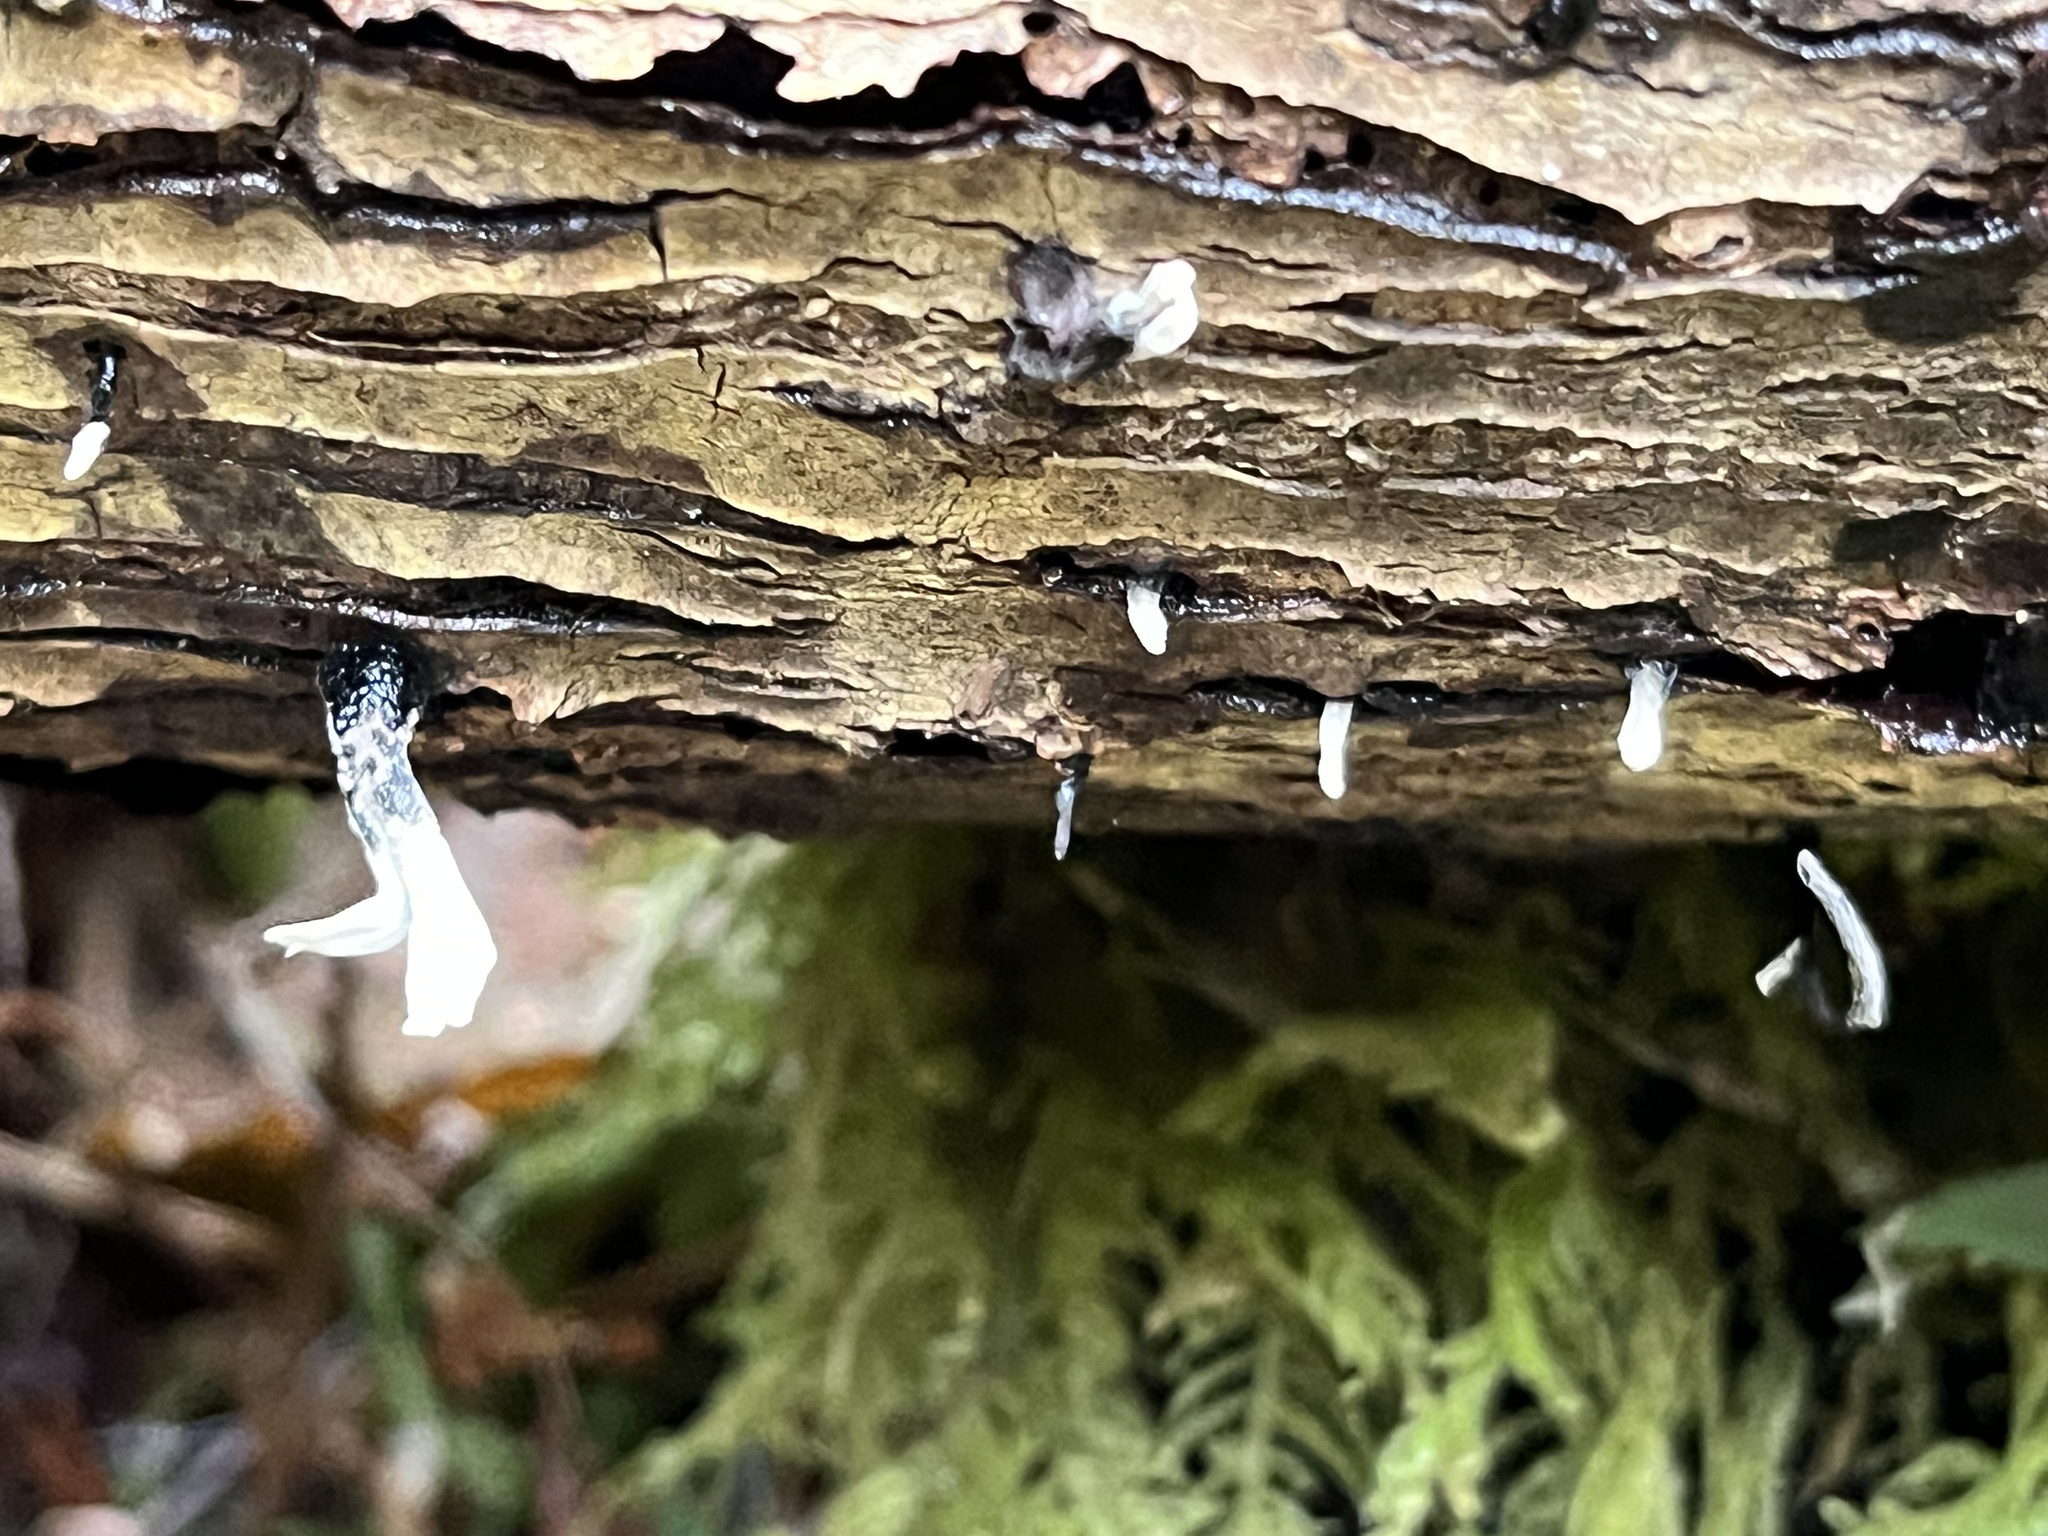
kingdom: Fungi
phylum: Ascomycota
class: Sordariomycetes
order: Xylariales
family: Xylariaceae
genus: Xylaria
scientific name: Xylaria hypoxylon
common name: Candle-snuff fungus
